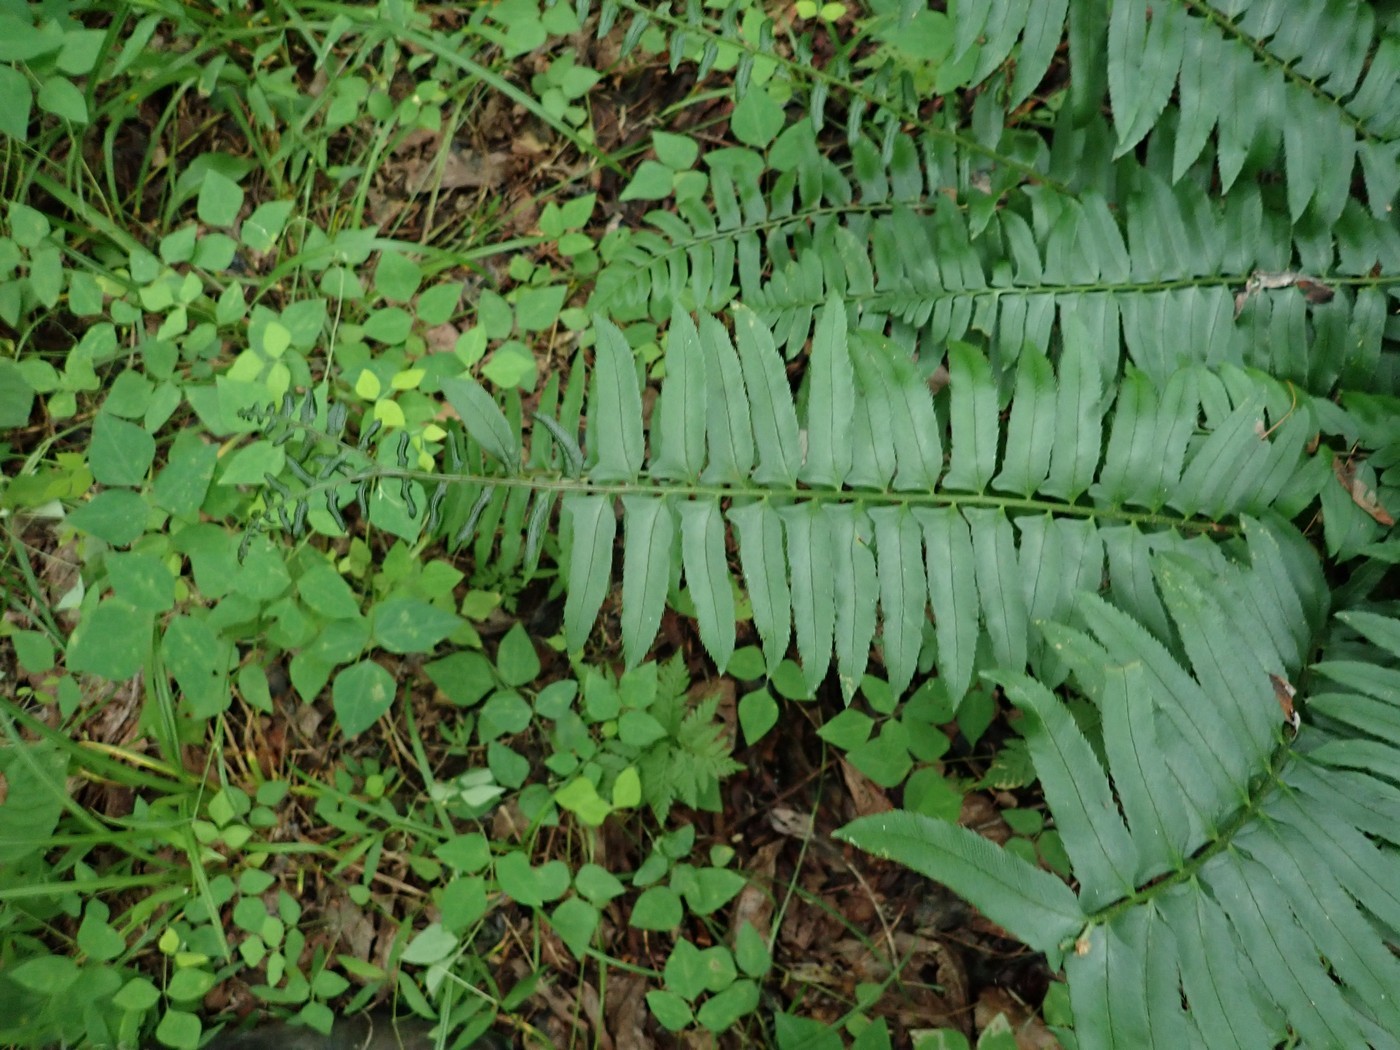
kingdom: Plantae
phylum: Tracheophyta
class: Polypodiopsida
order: Polypodiales
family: Dryopteridaceae
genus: Polystichum
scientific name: Polystichum acrostichoides
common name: Christmas fern
